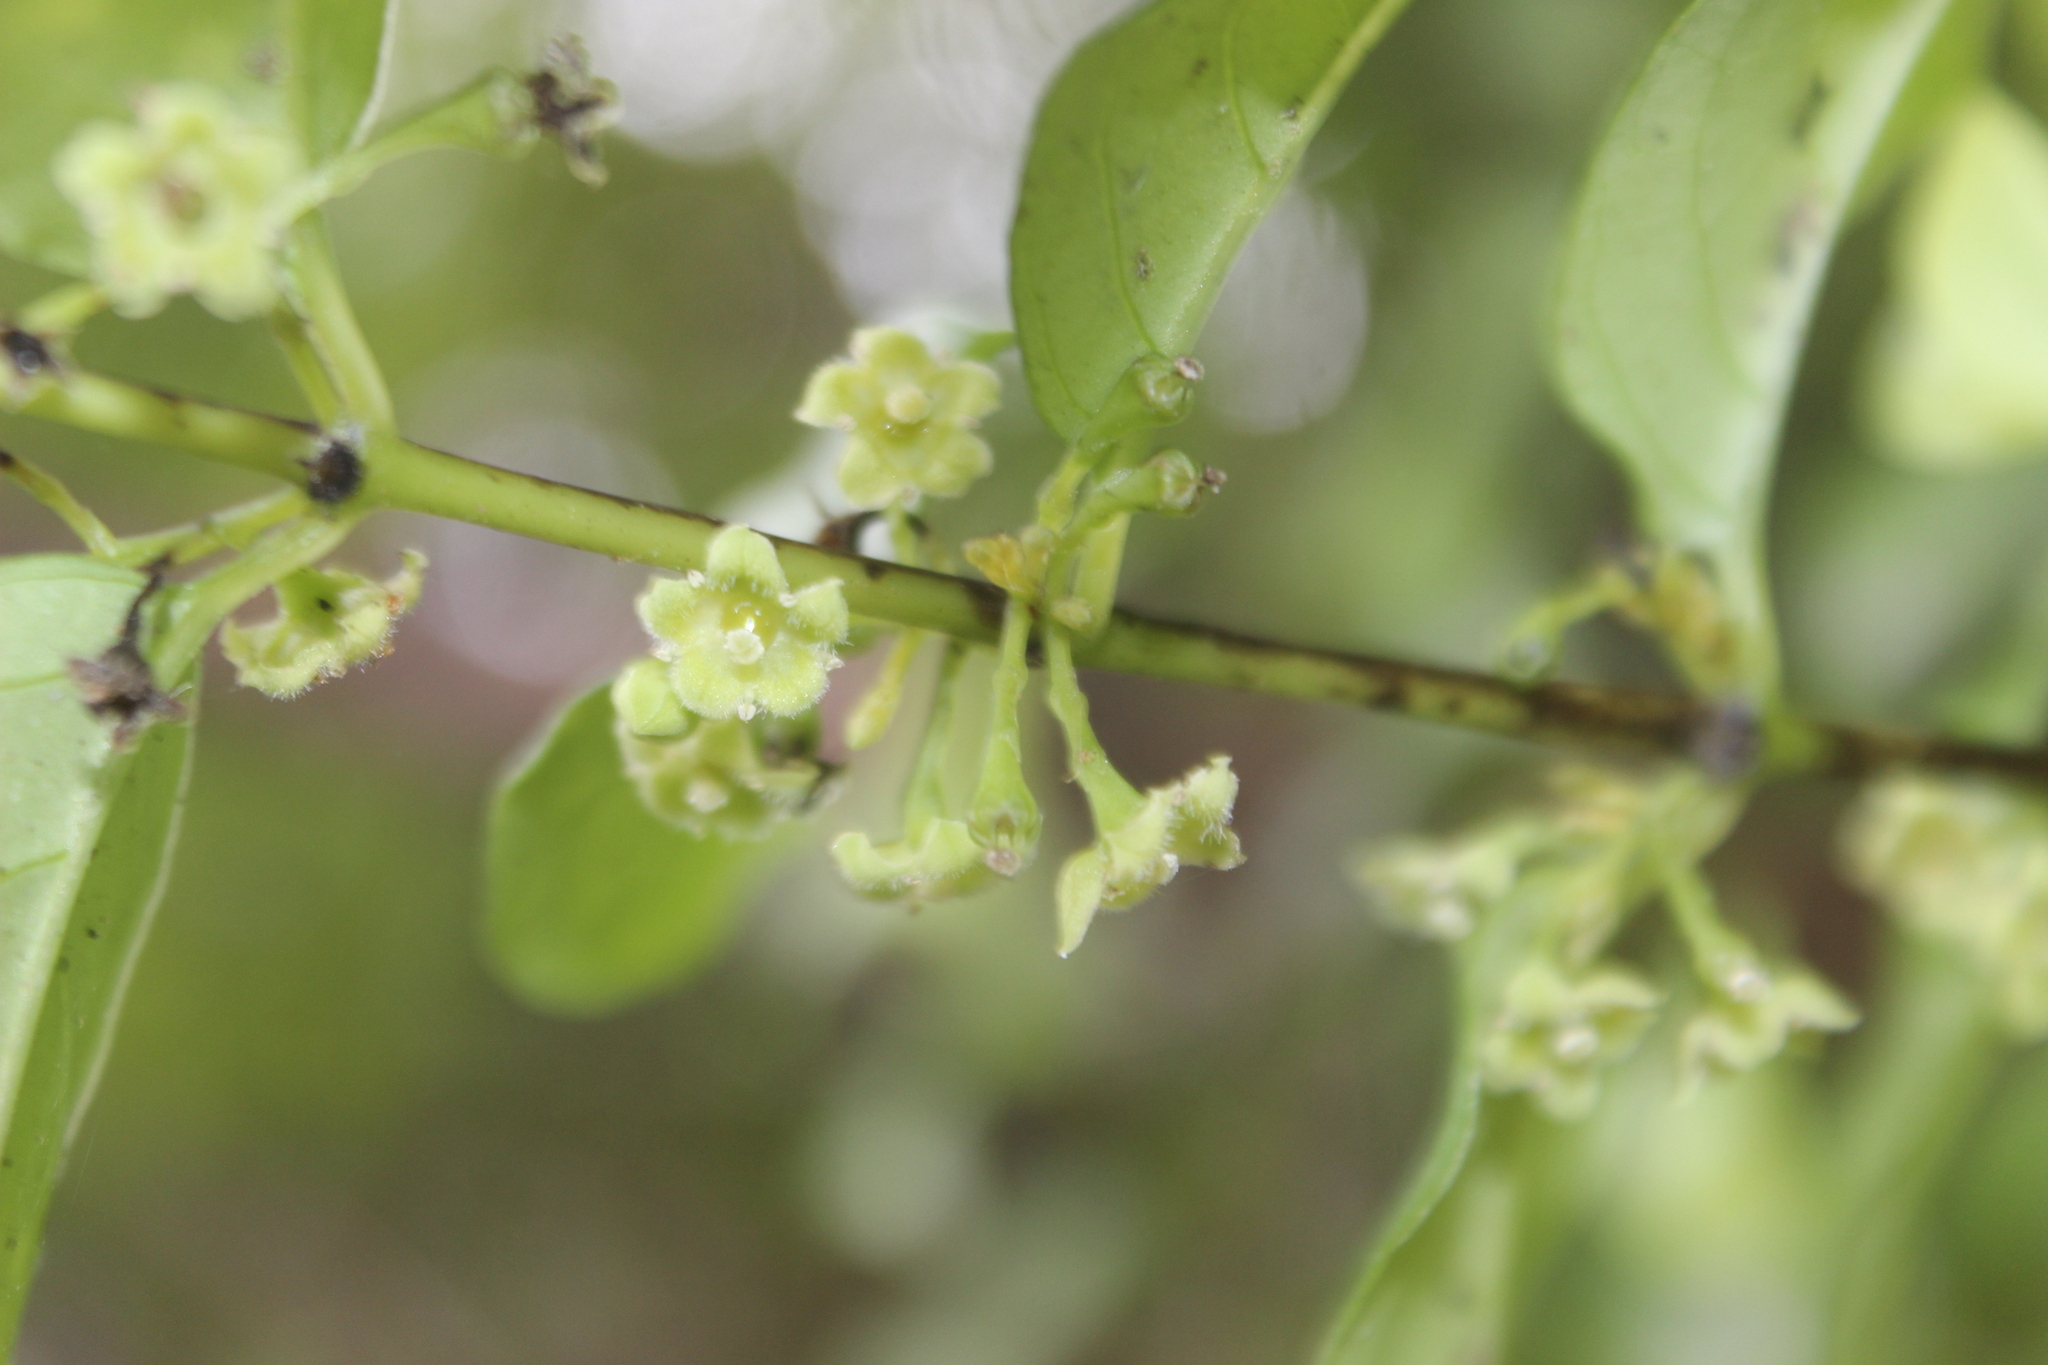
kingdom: Plantae
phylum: Tracheophyta
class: Magnoliopsida
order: Gentianales
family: Loganiaceae
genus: Geniostoma
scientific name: Geniostoma ligustrifolium
